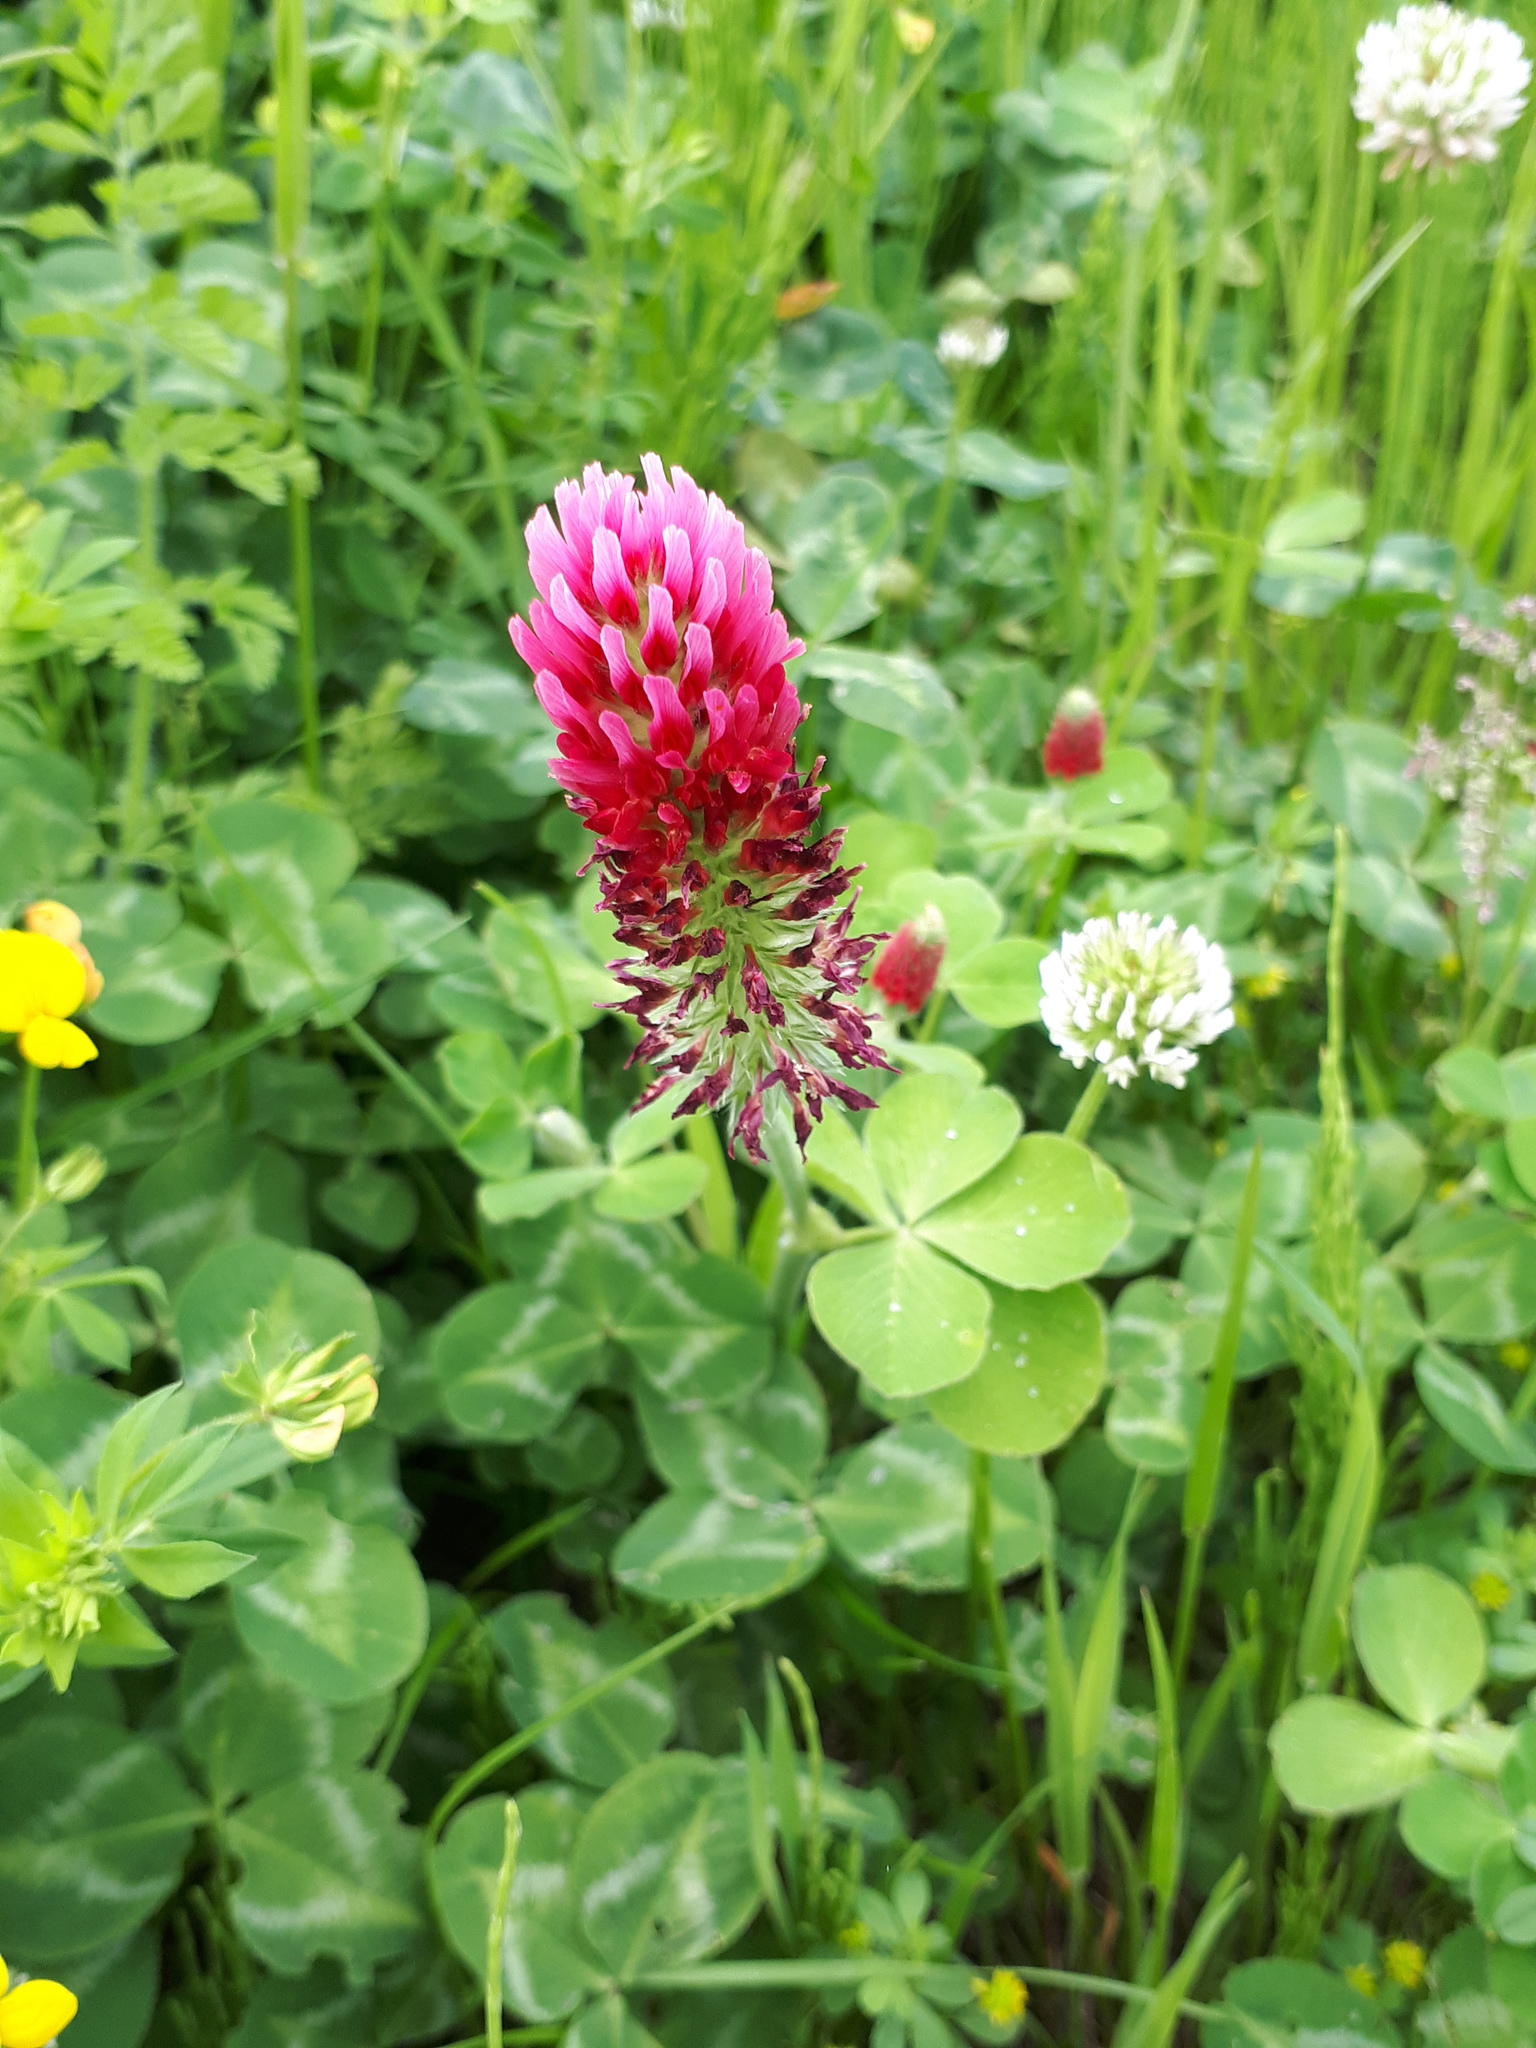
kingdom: Plantae
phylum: Tracheophyta
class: Magnoliopsida
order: Fabales
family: Fabaceae
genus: Trifolium
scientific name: Trifolium incarnatum
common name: Crimson clover
